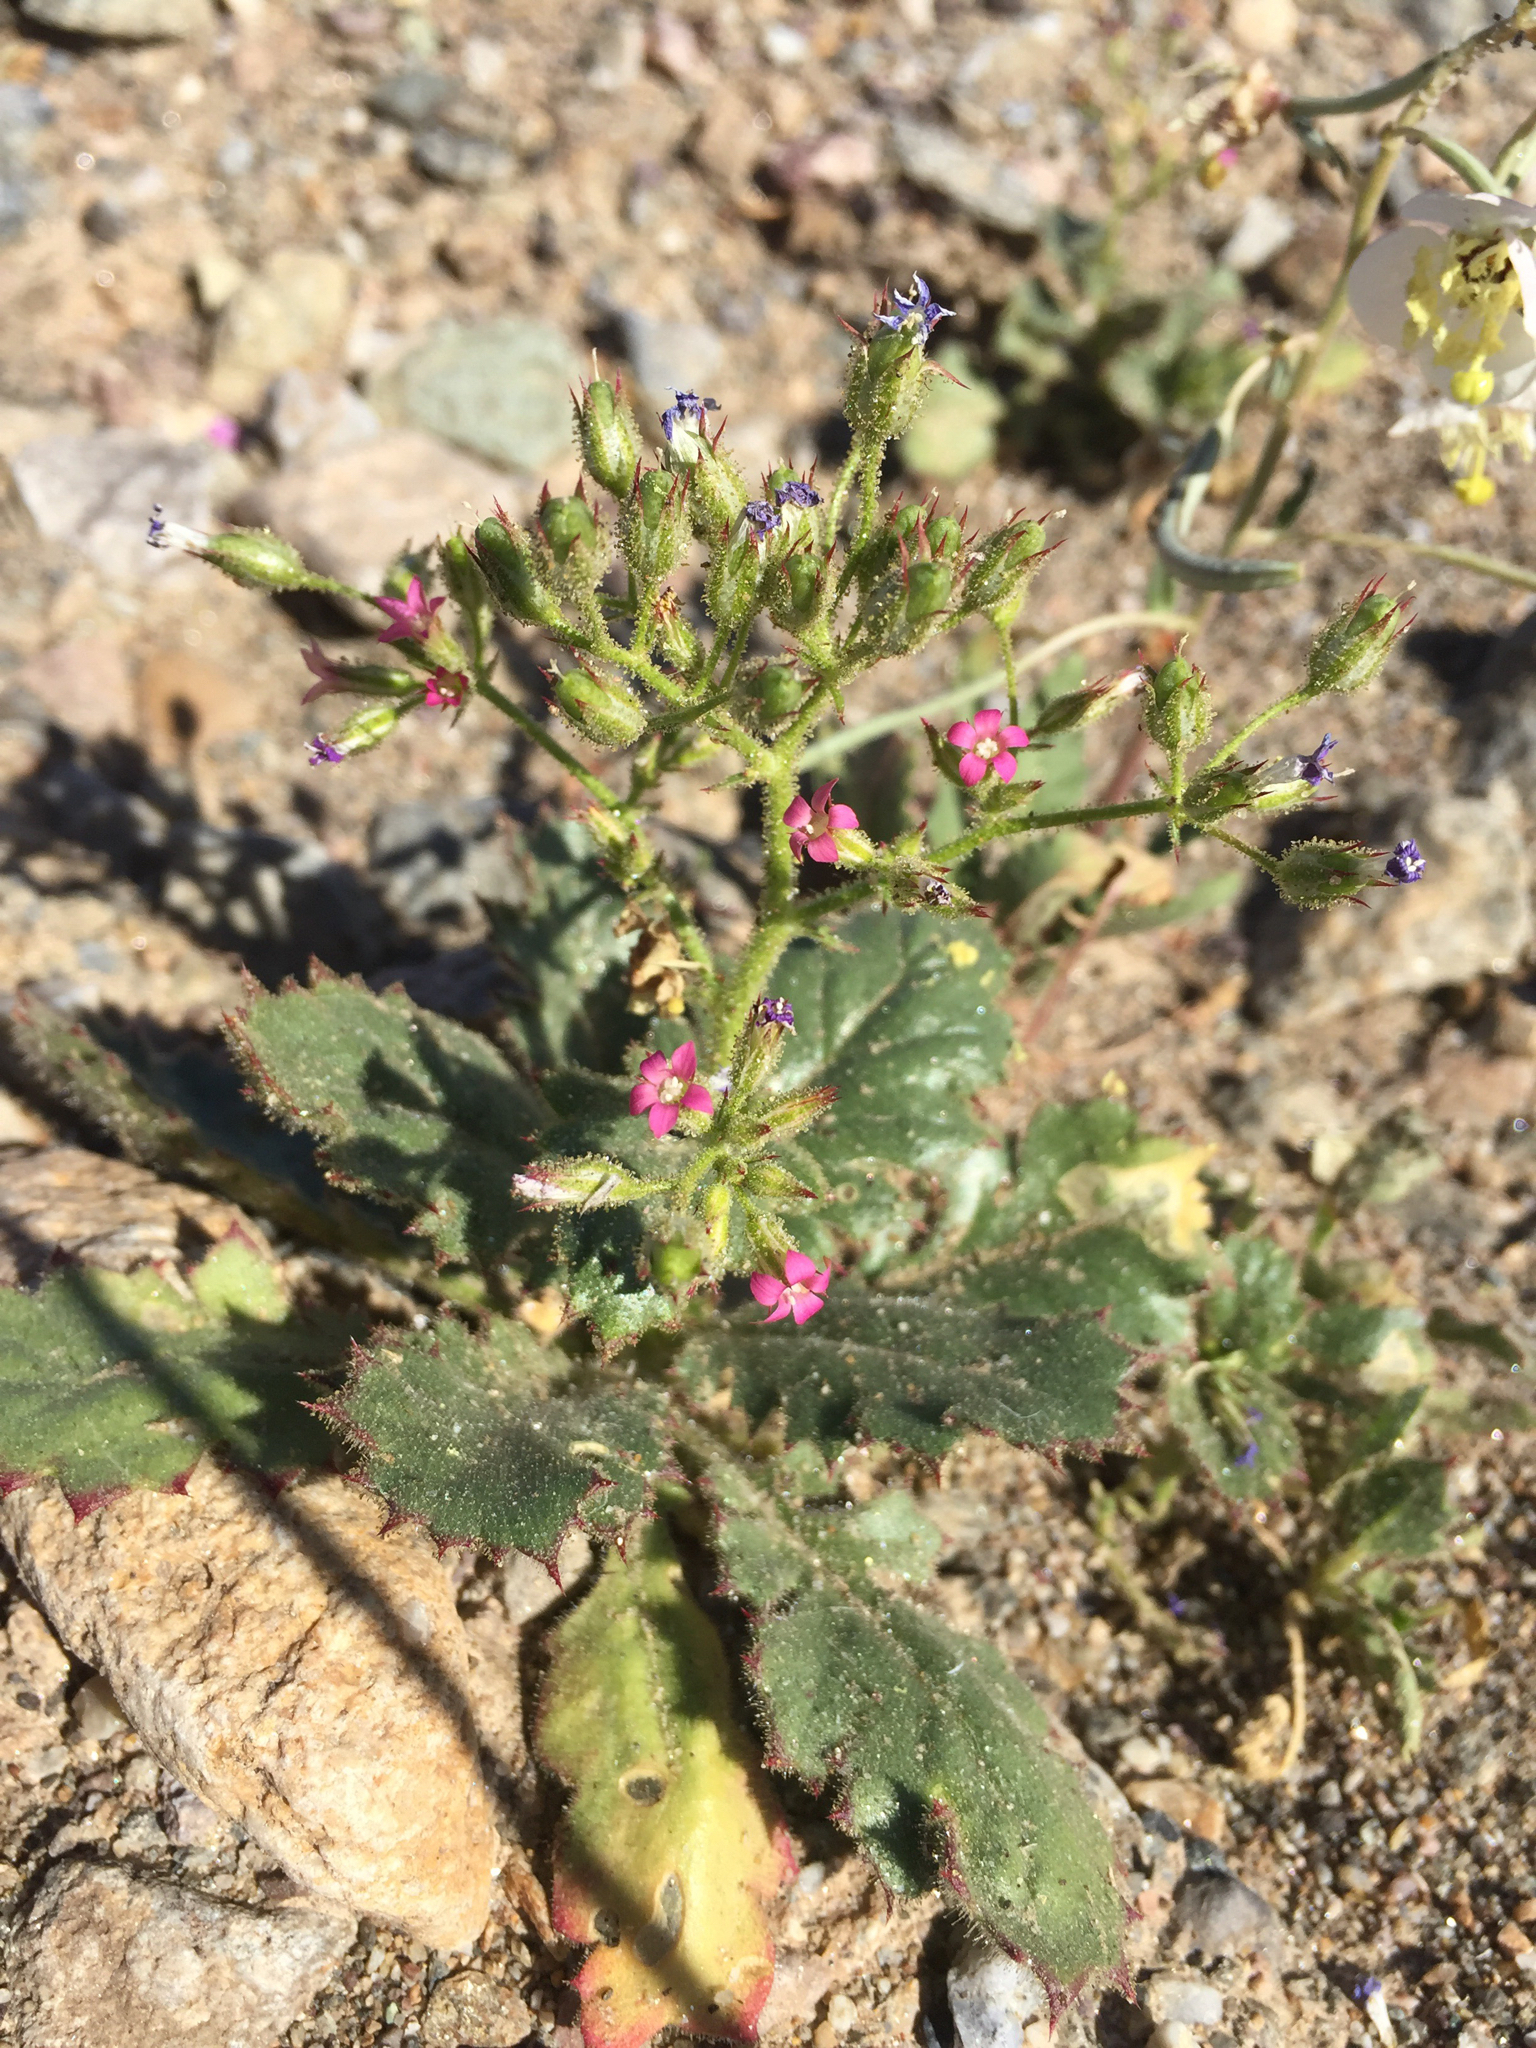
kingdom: Plantae
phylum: Tracheophyta
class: Magnoliopsida
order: Ericales
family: Polemoniaceae
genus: Aliciella
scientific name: Aliciella latifolia
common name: Broad-leaf gilia
